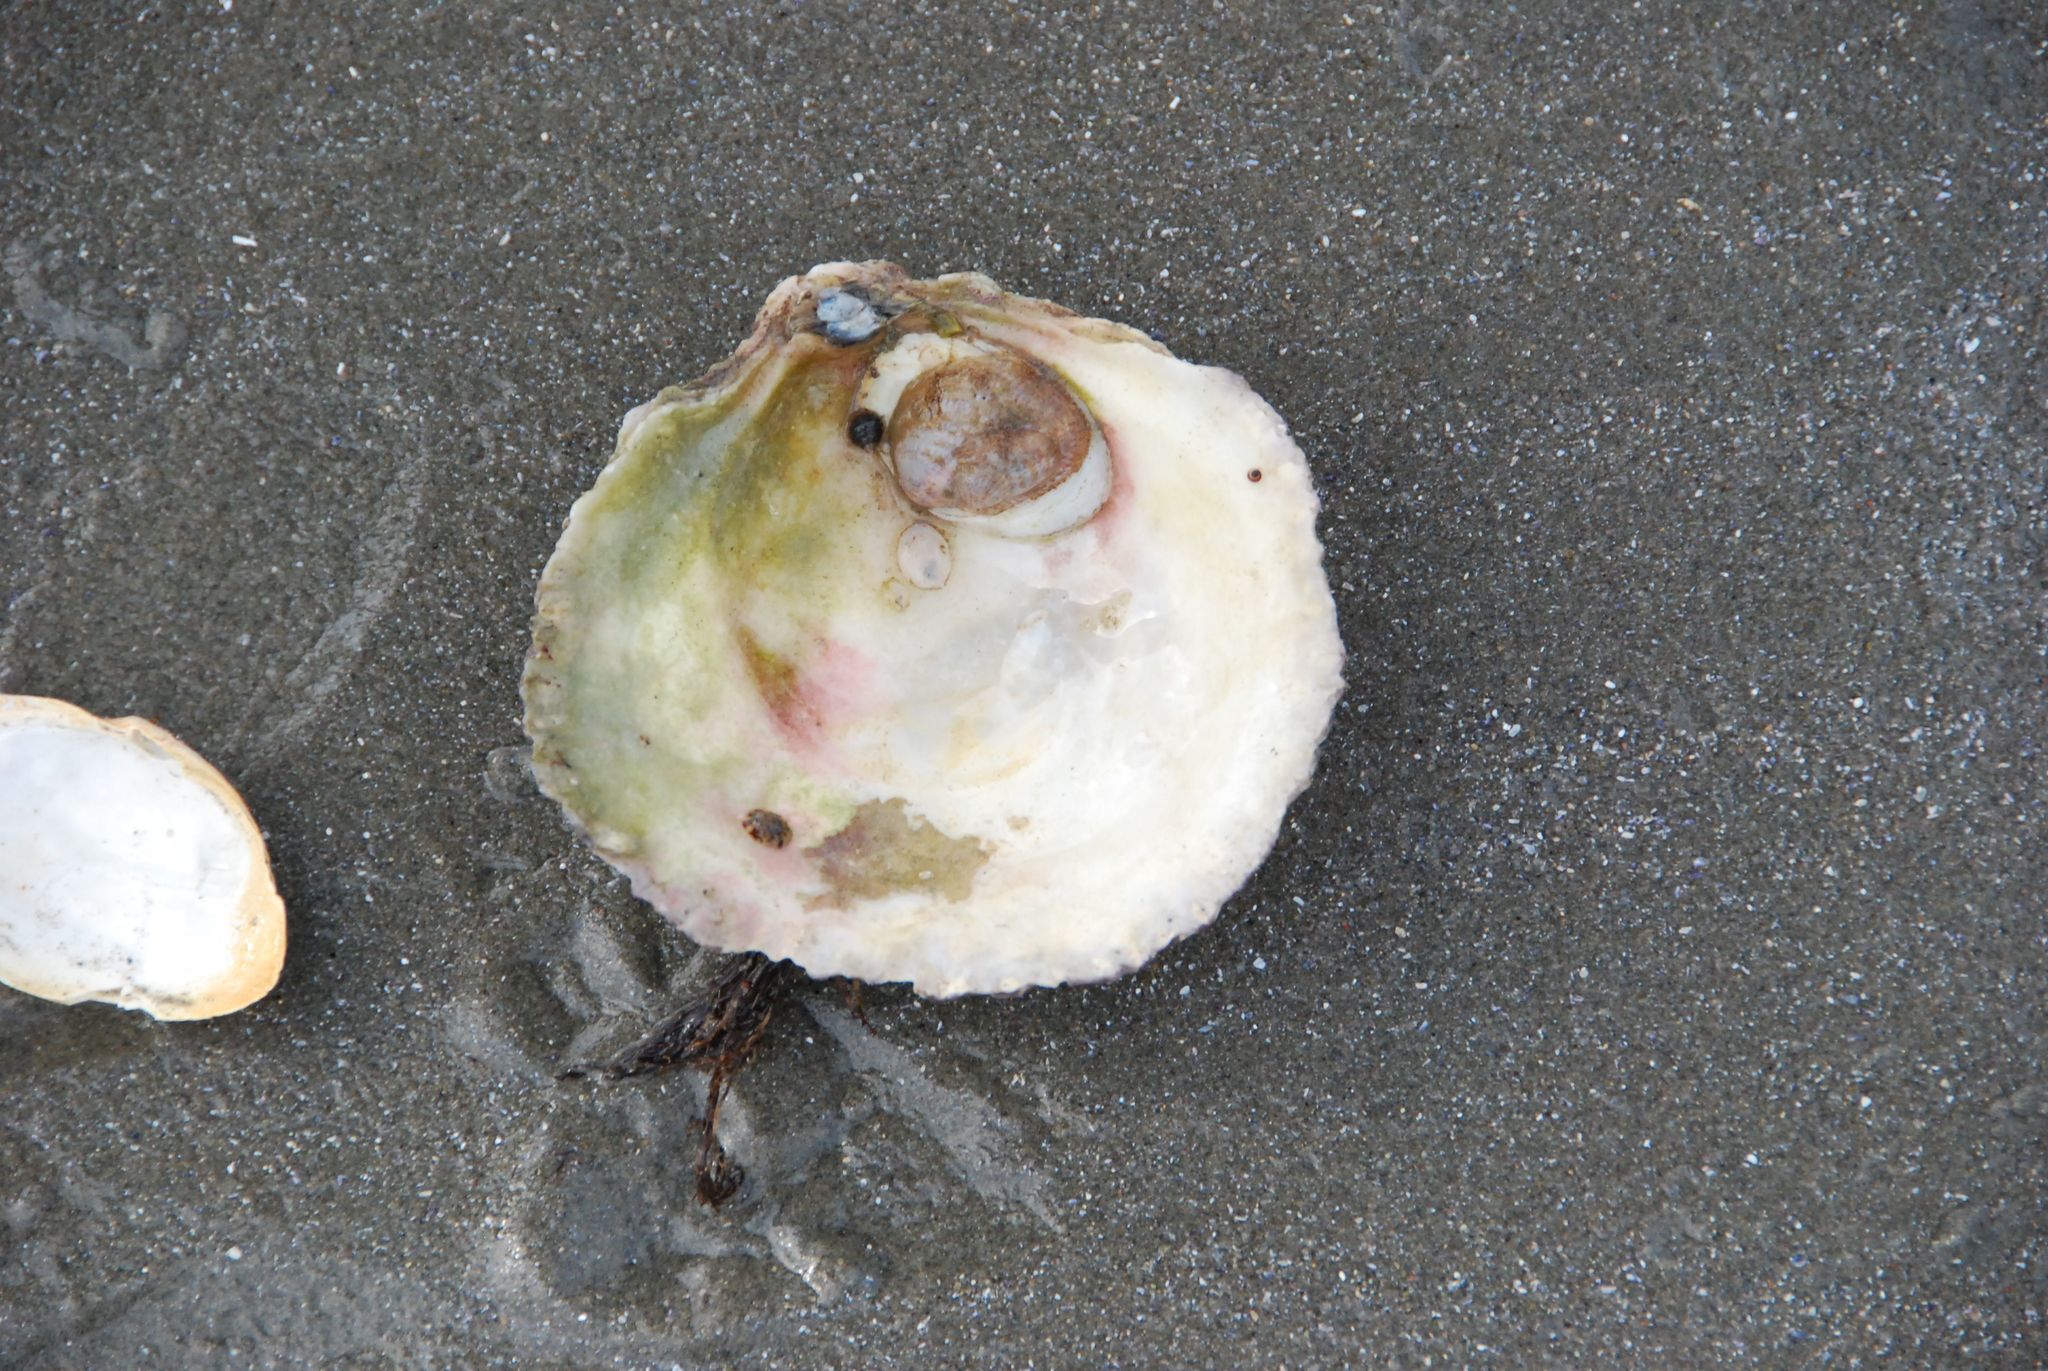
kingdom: Animalia
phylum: Mollusca
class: Bivalvia
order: Ostreida
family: Ostreidae
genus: Ostrea
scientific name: Ostrea edulis
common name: Flat oyster
